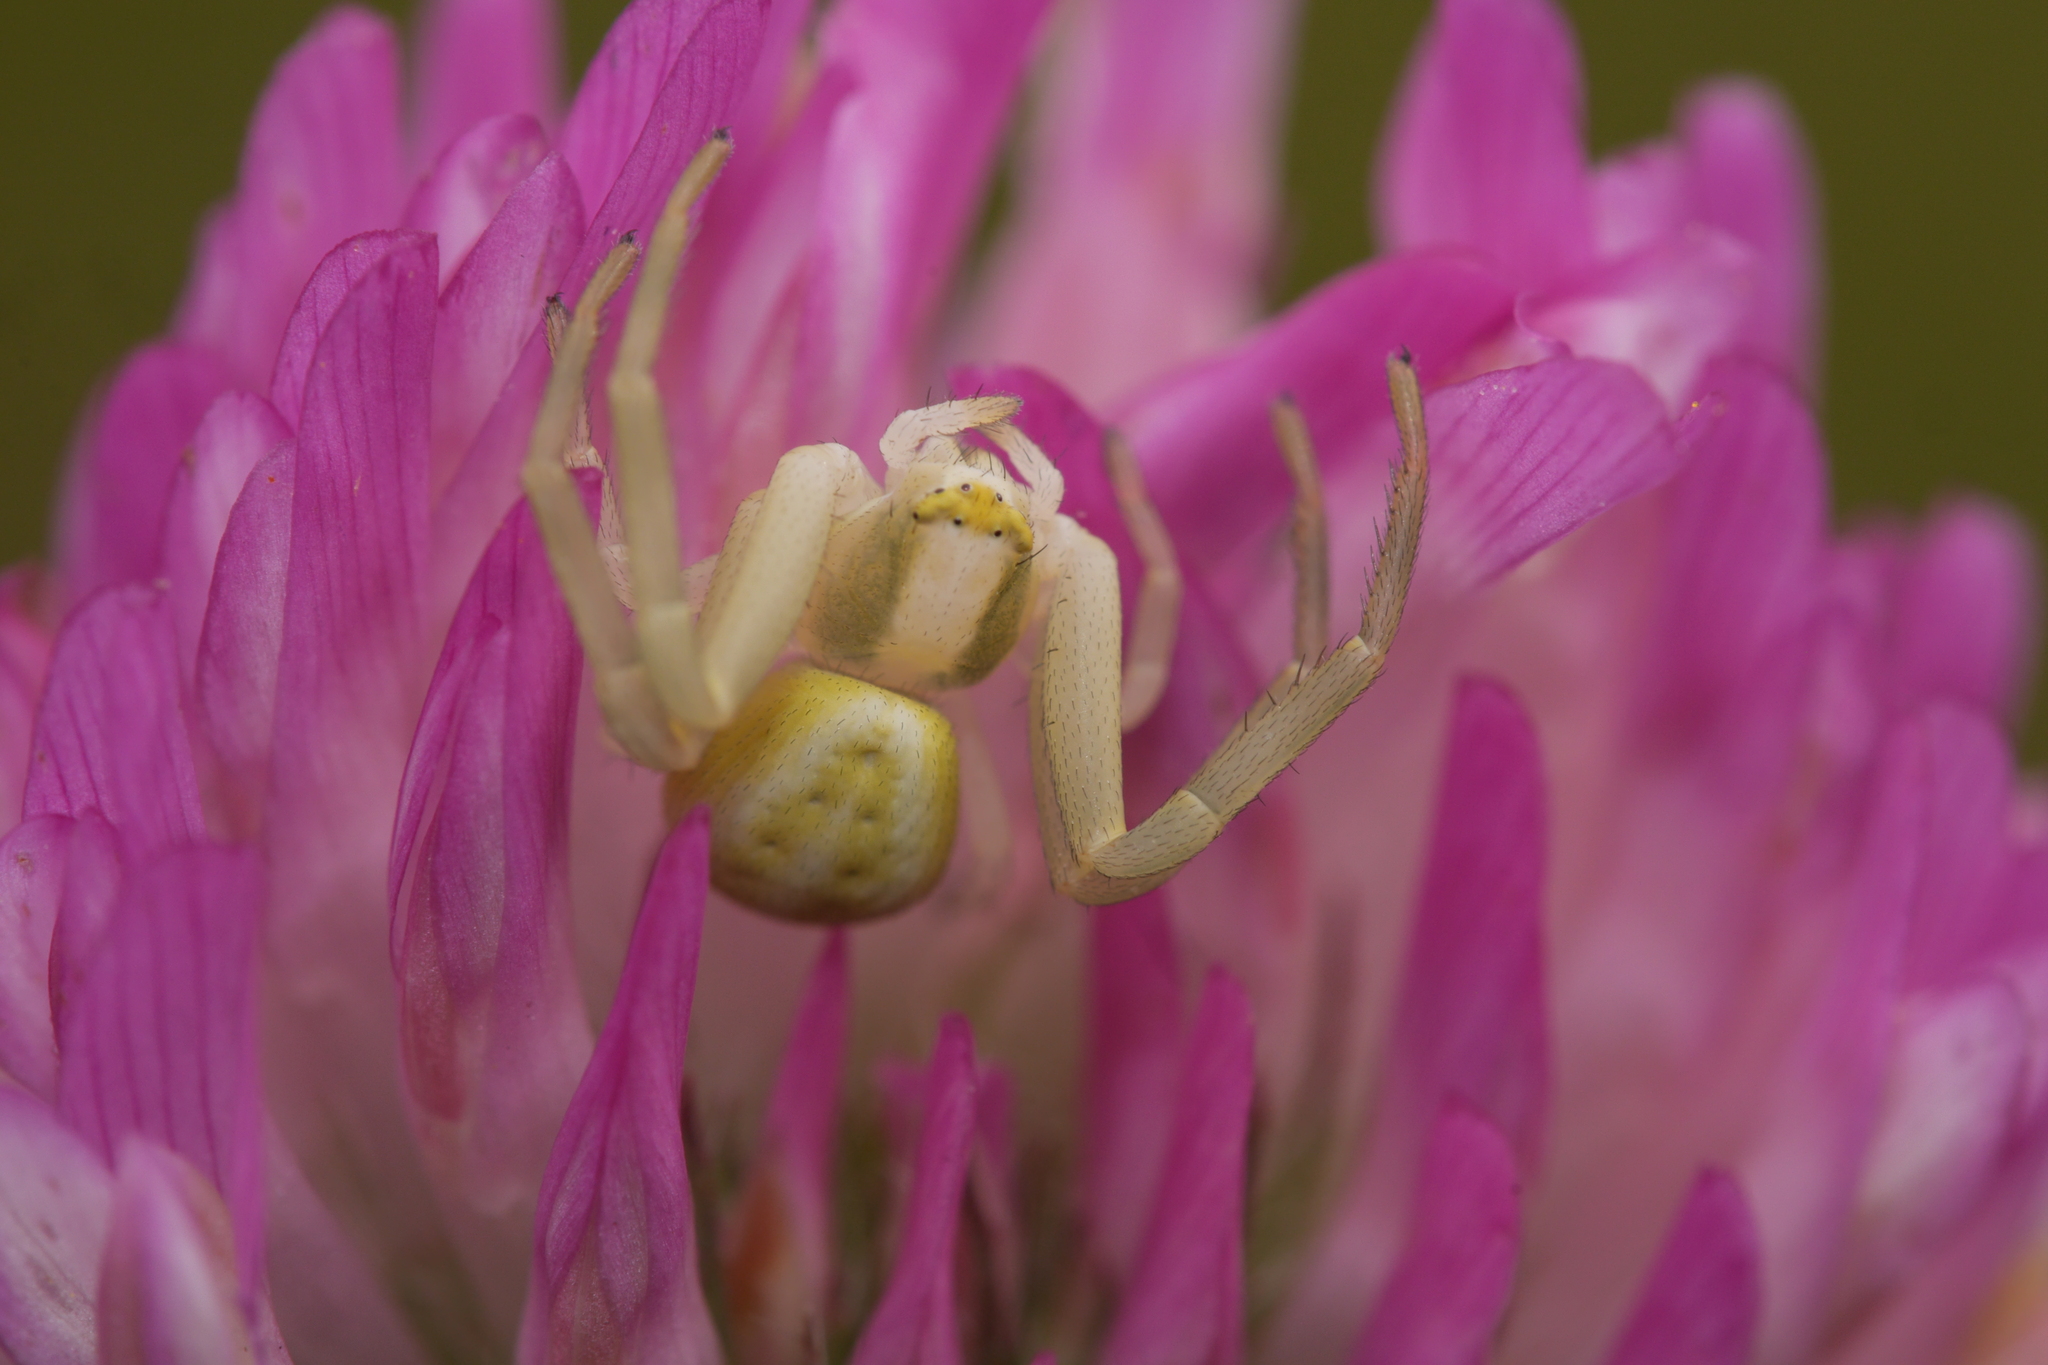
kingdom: Animalia
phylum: Arthropoda
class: Arachnida
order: Araneae
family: Thomisidae
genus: Misumena
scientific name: Misumena vatia
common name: Goldenrod crab spider
